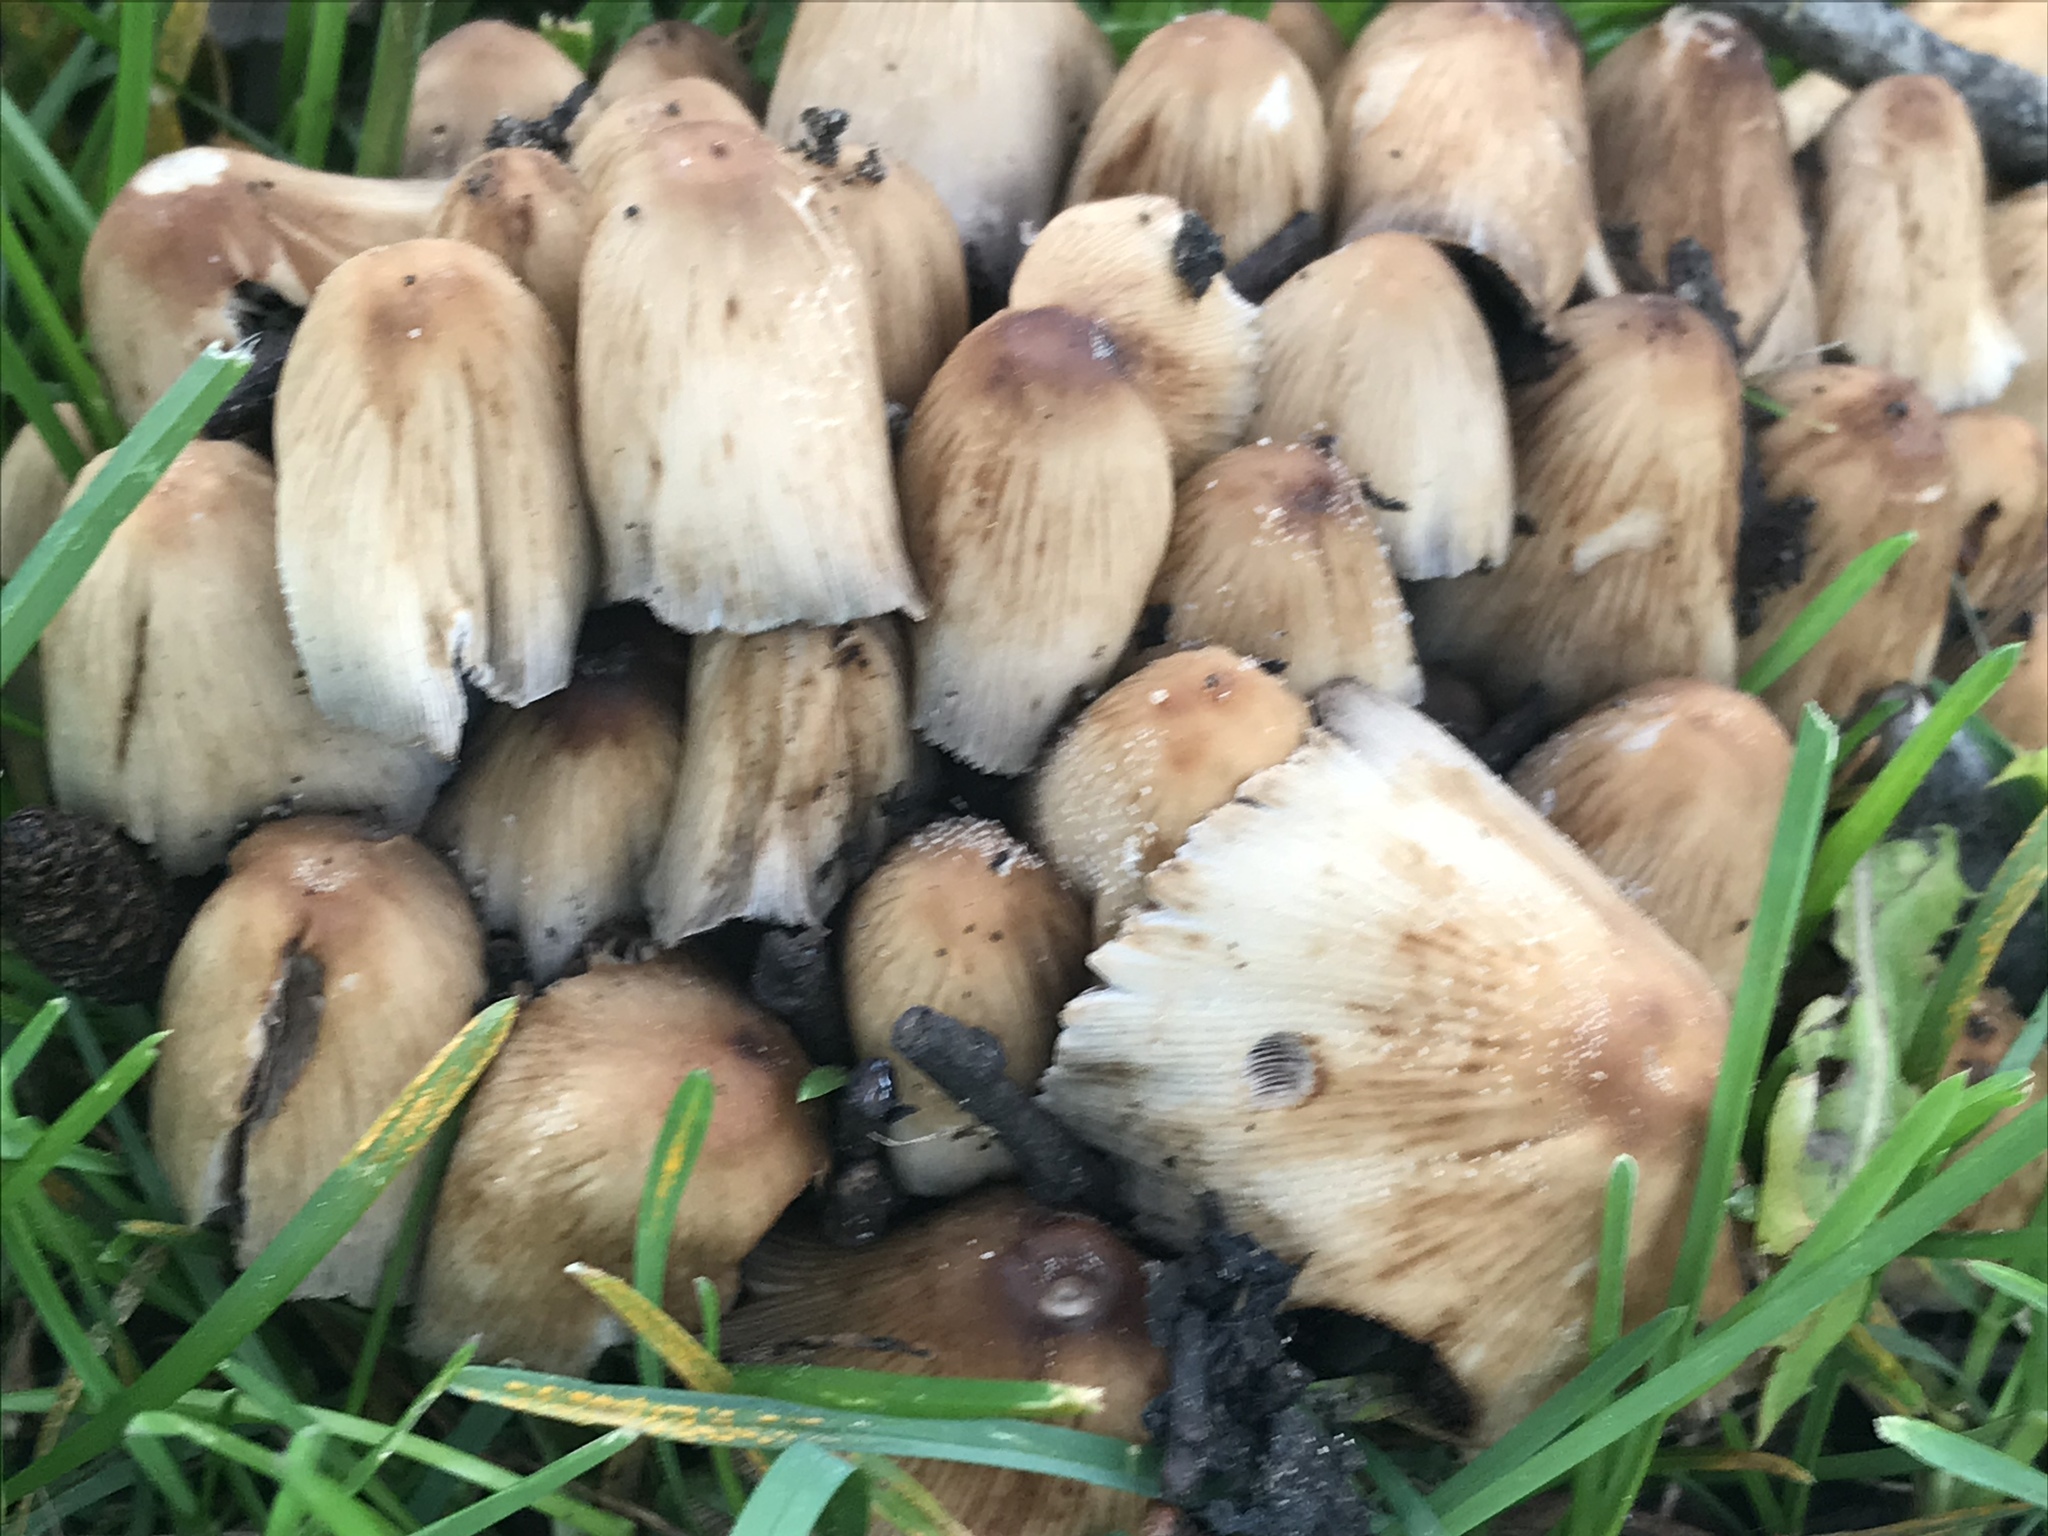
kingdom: Fungi
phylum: Basidiomycota
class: Agaricomycetes
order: Agaricales
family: Psathyrellaceae
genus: Coprinellus
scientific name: Coprinellus micaceus
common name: Glistening ink-cap
